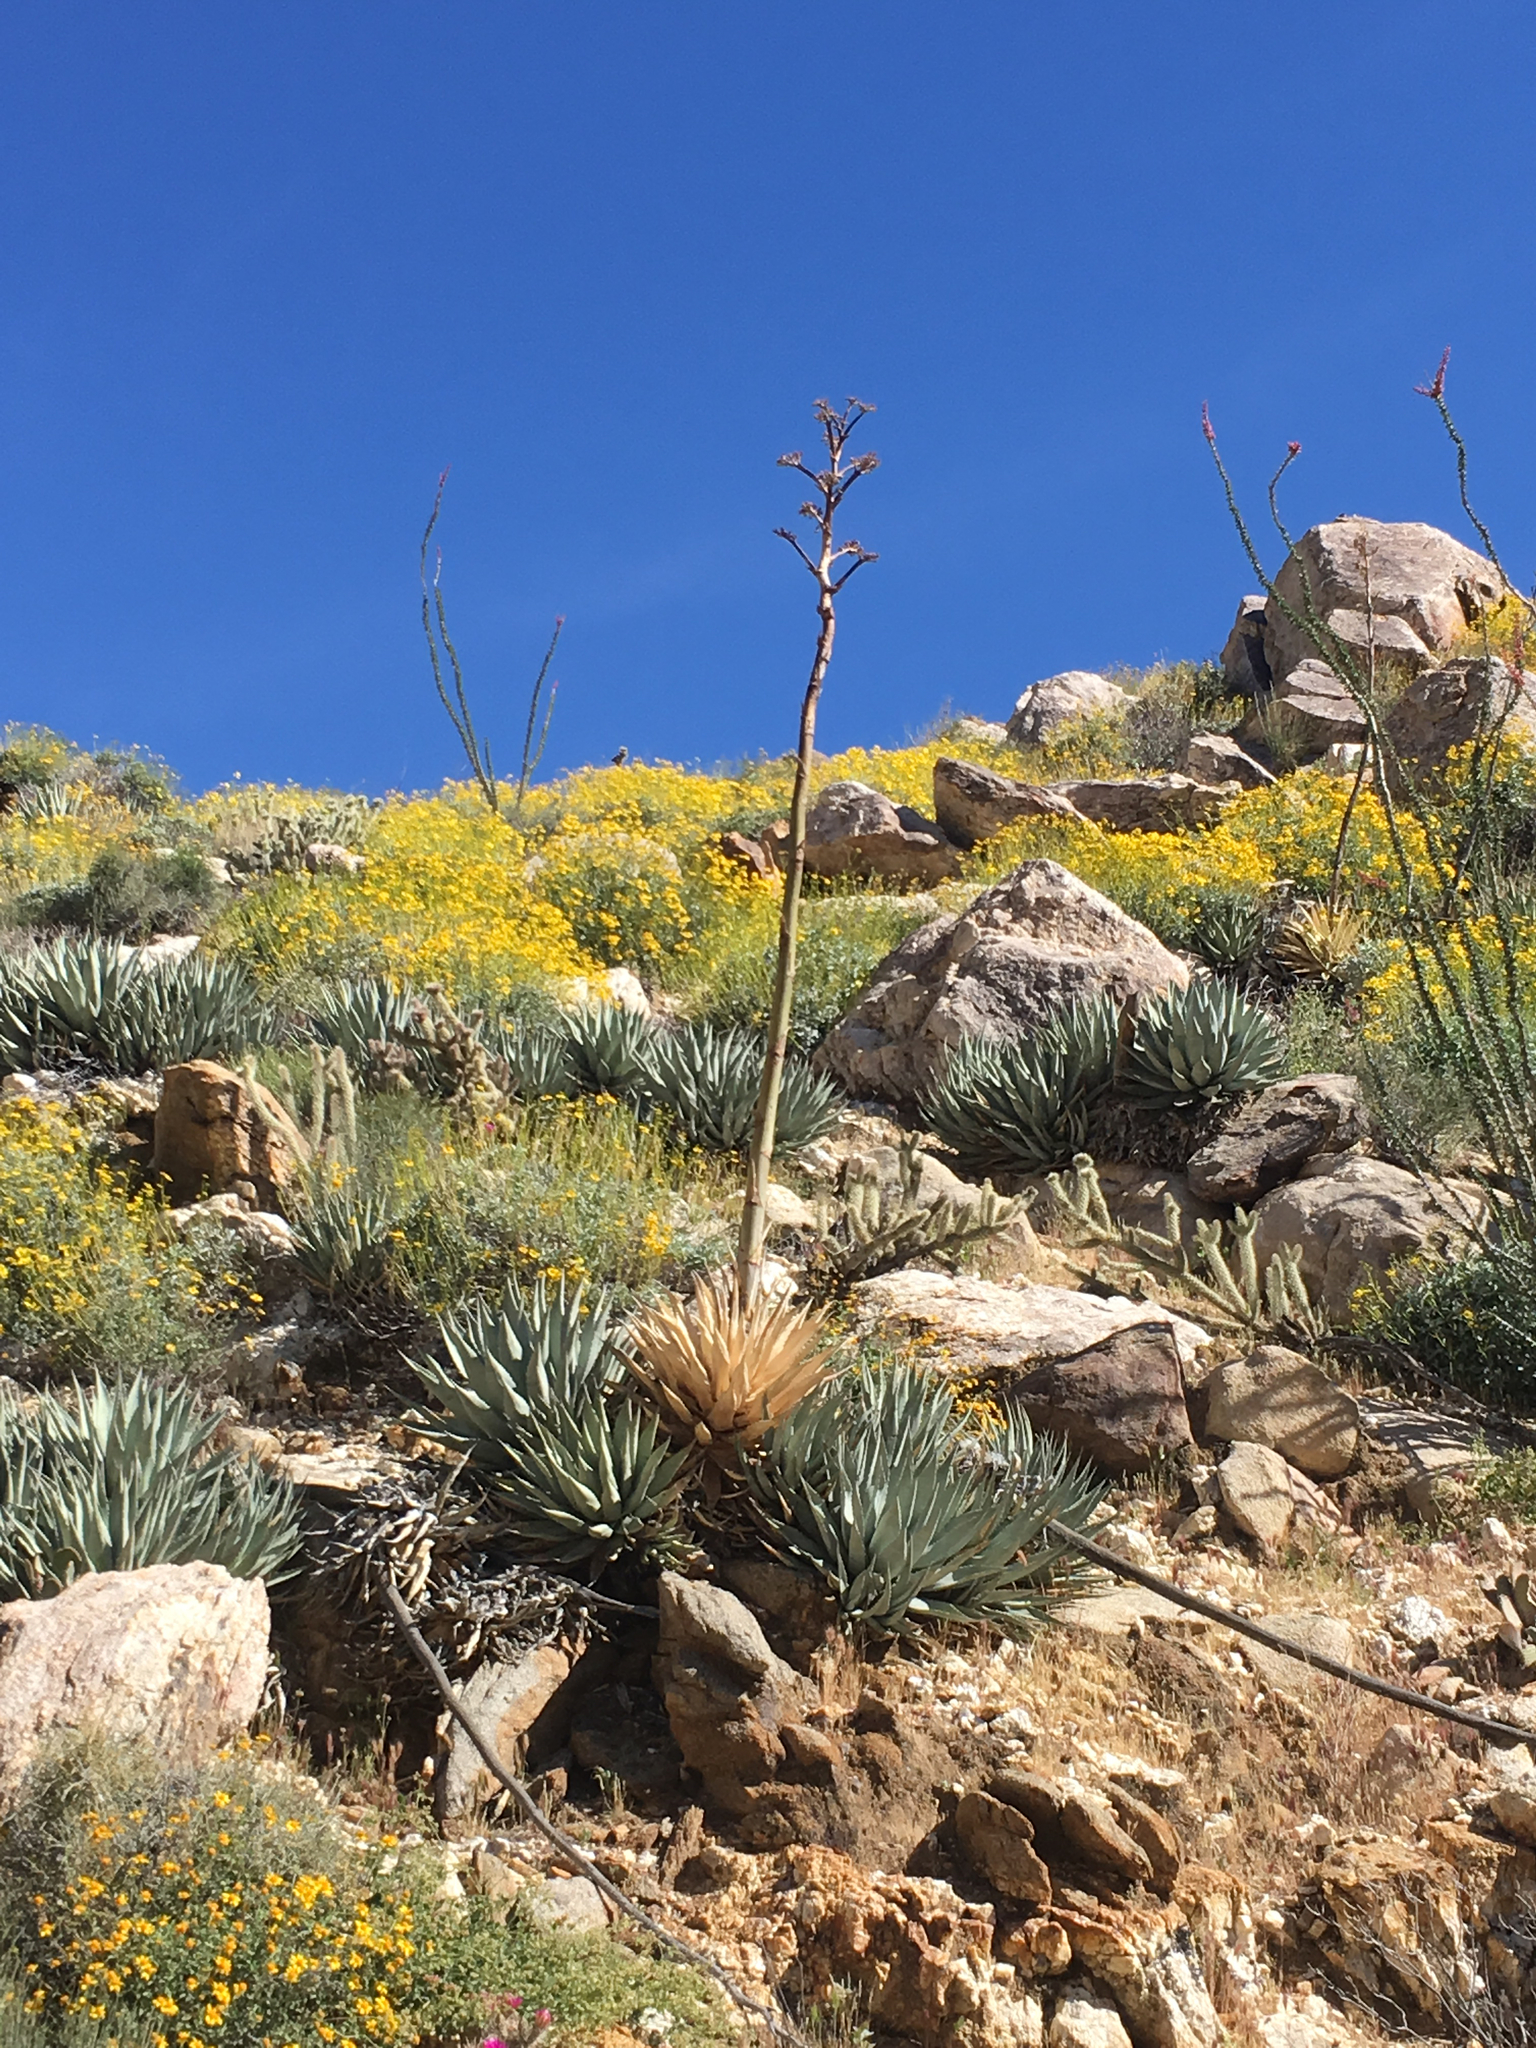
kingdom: Plantae
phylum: Tracheophyta
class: Liliopsida
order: Asparagales
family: Asparagaceae
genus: Agave
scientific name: Agave deserti
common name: Desert agave
